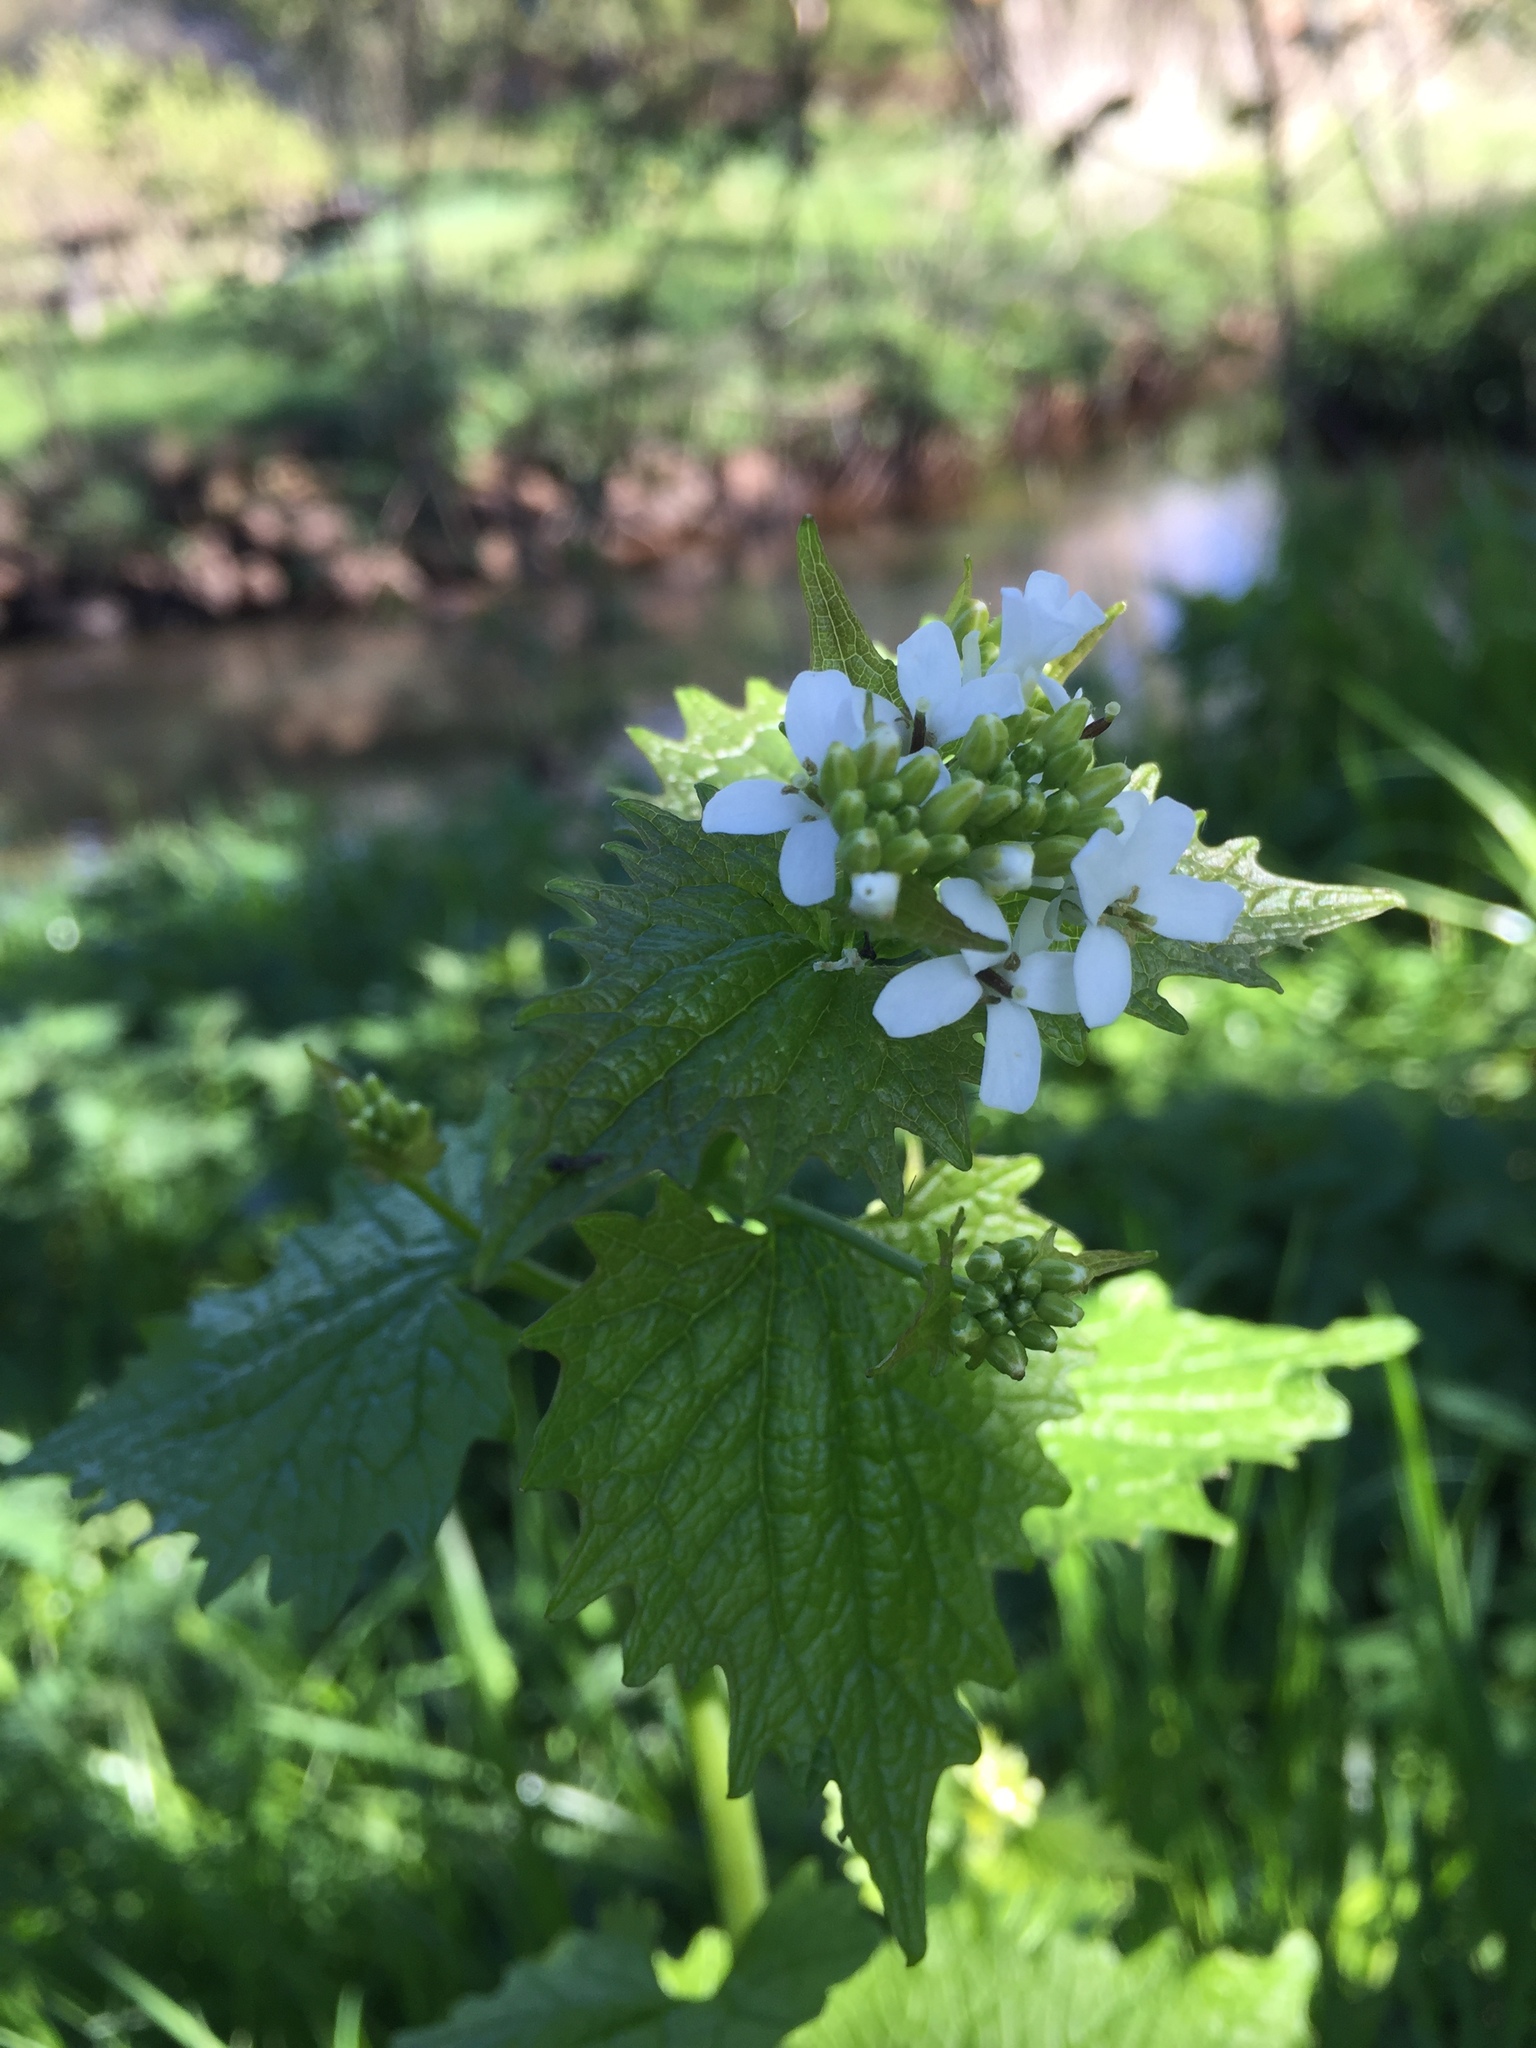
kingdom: Plantae
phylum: Tracheophyta
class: Magnoliopsida
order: Brassicales
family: Brassicaceae
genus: Alliaria
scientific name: Alliaria petiolata
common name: Garlic mustard
